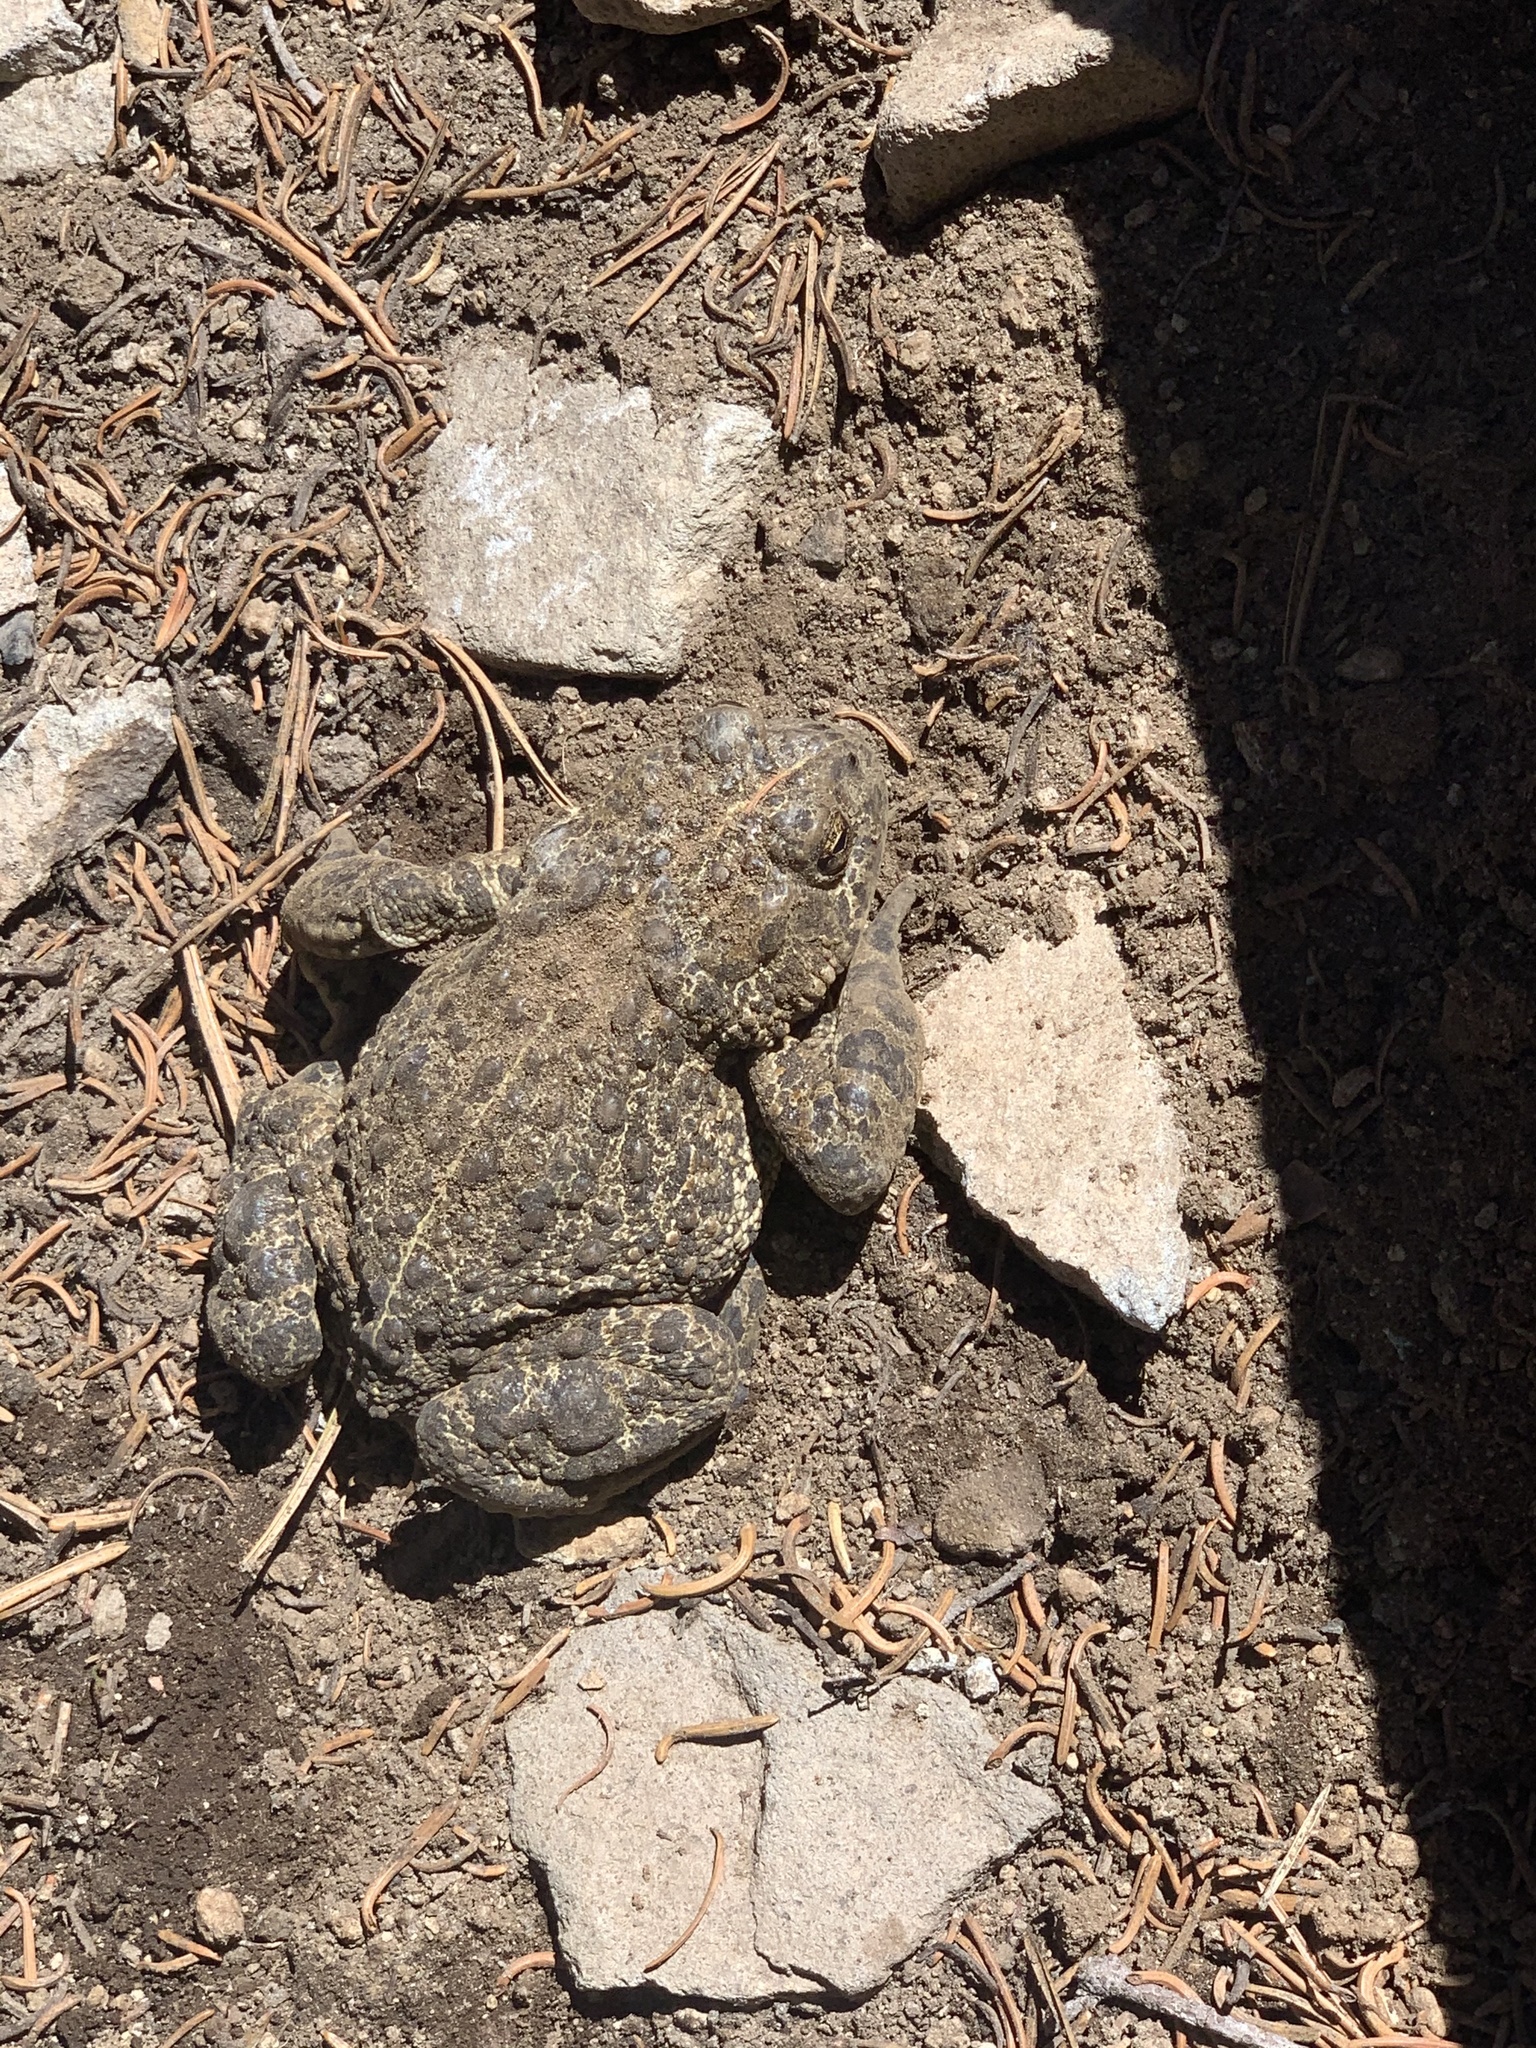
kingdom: Animalia
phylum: Chordata
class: Amphibia
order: Anura
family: Bufonidae
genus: Anaxyrus
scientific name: Anaxyrus boreas
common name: Western toad
